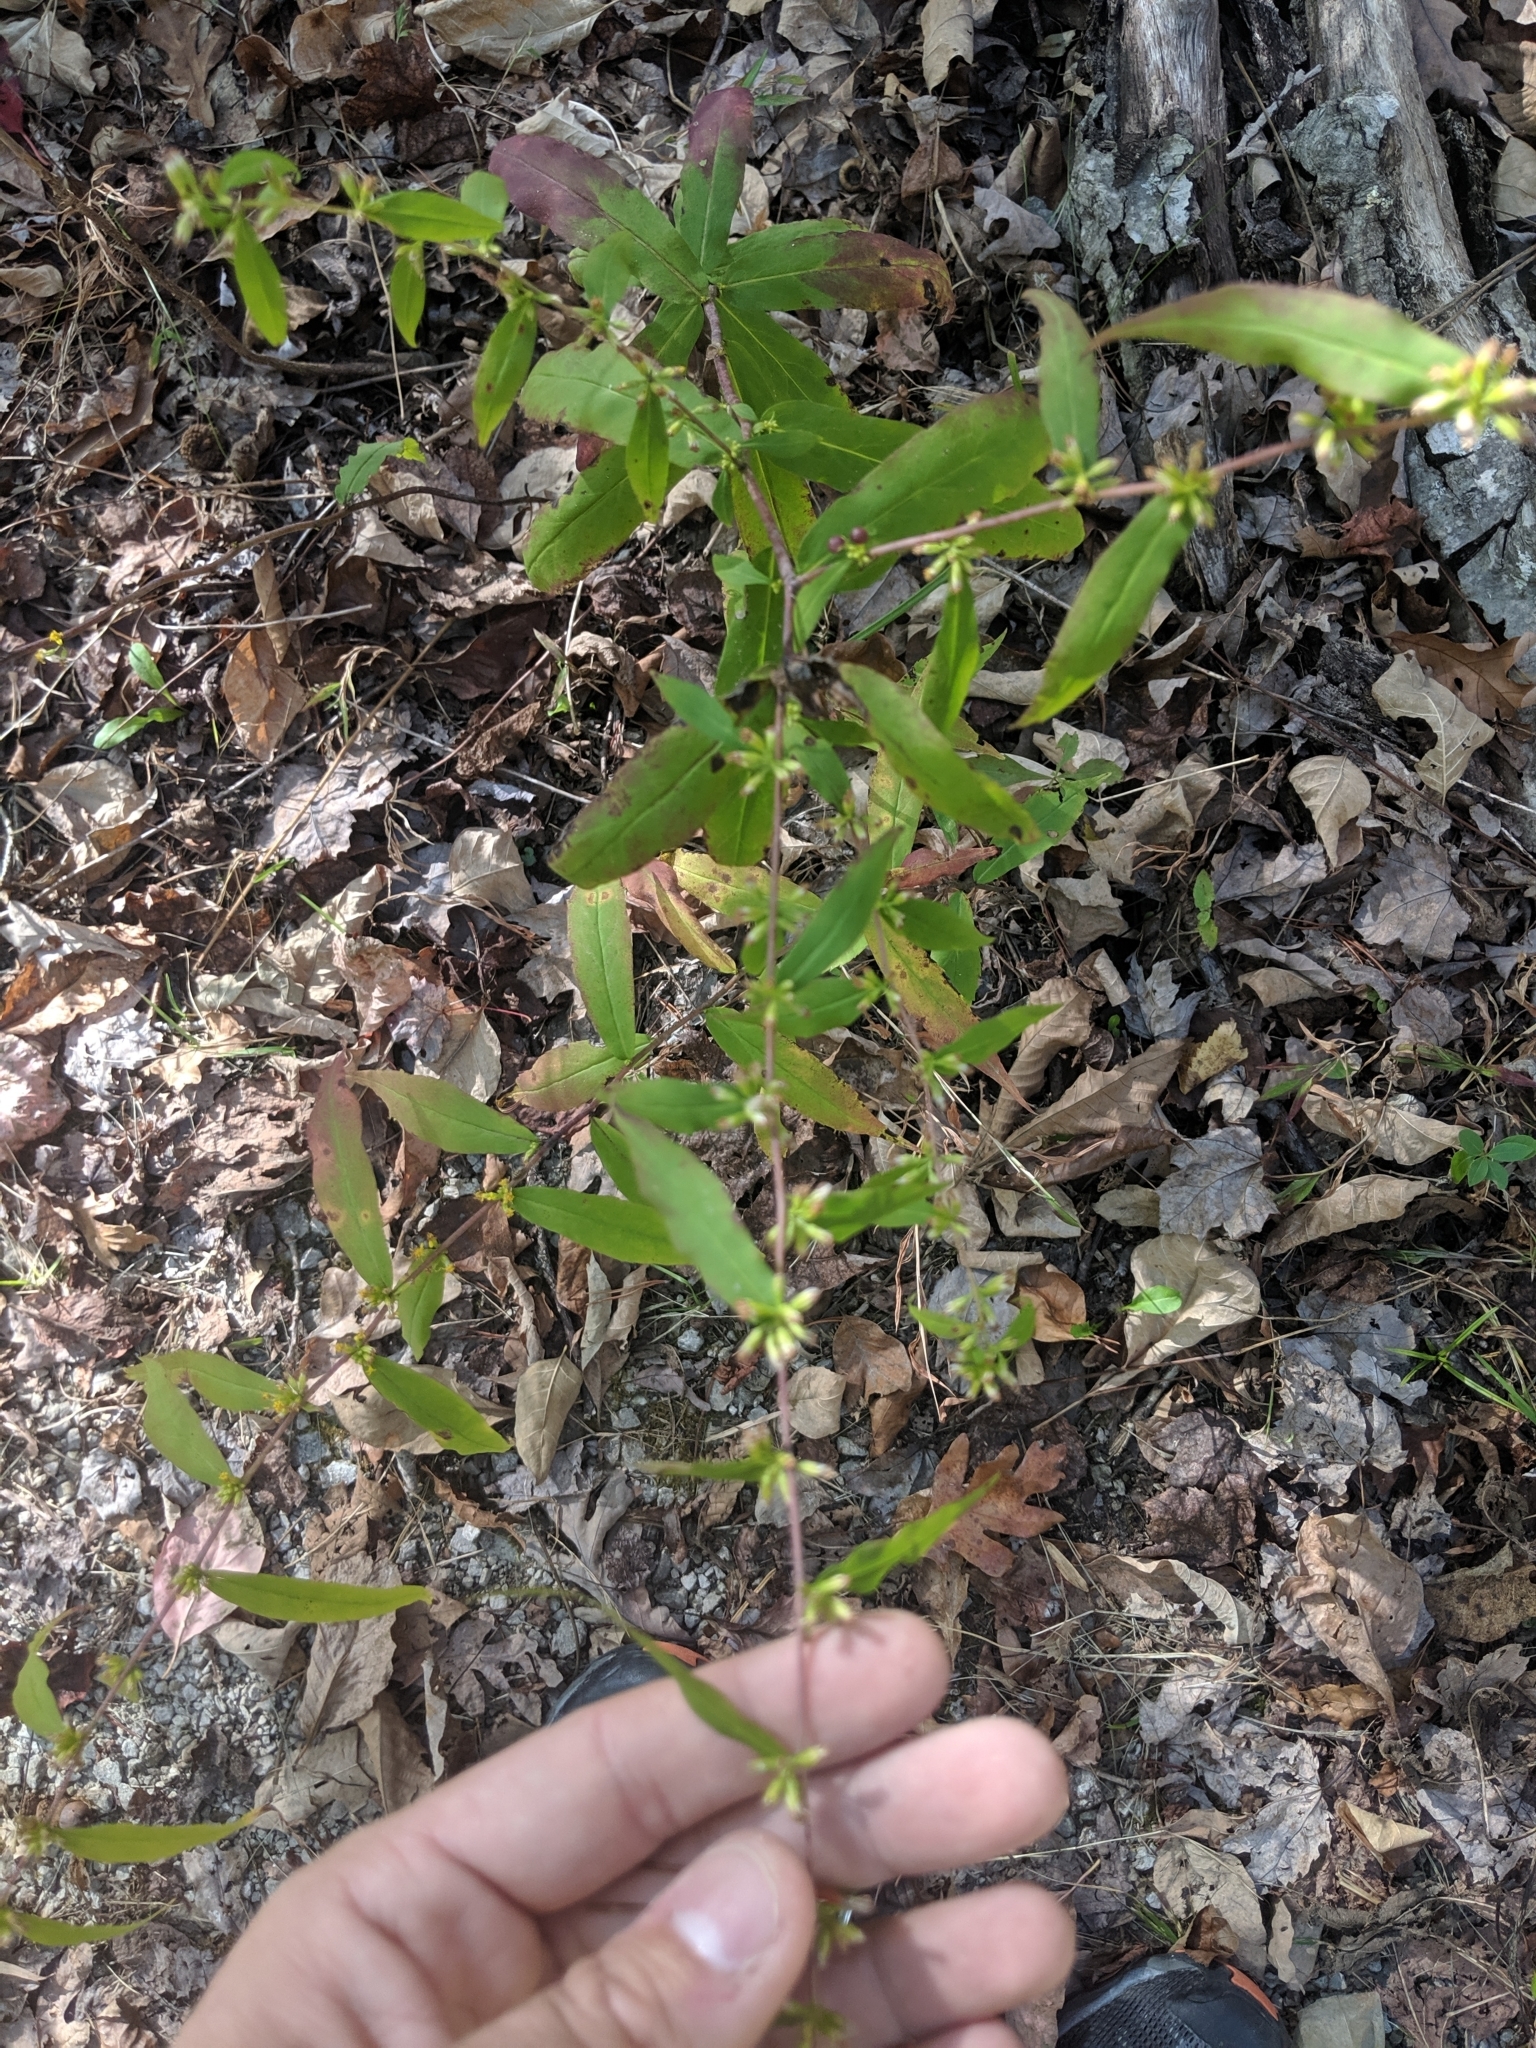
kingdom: Plantae
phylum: Tracheophyta
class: Magnoliopsida
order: Asterales
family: Asteraceae
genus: Solidago
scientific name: Solidago caesia
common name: Woodland goldenrod
